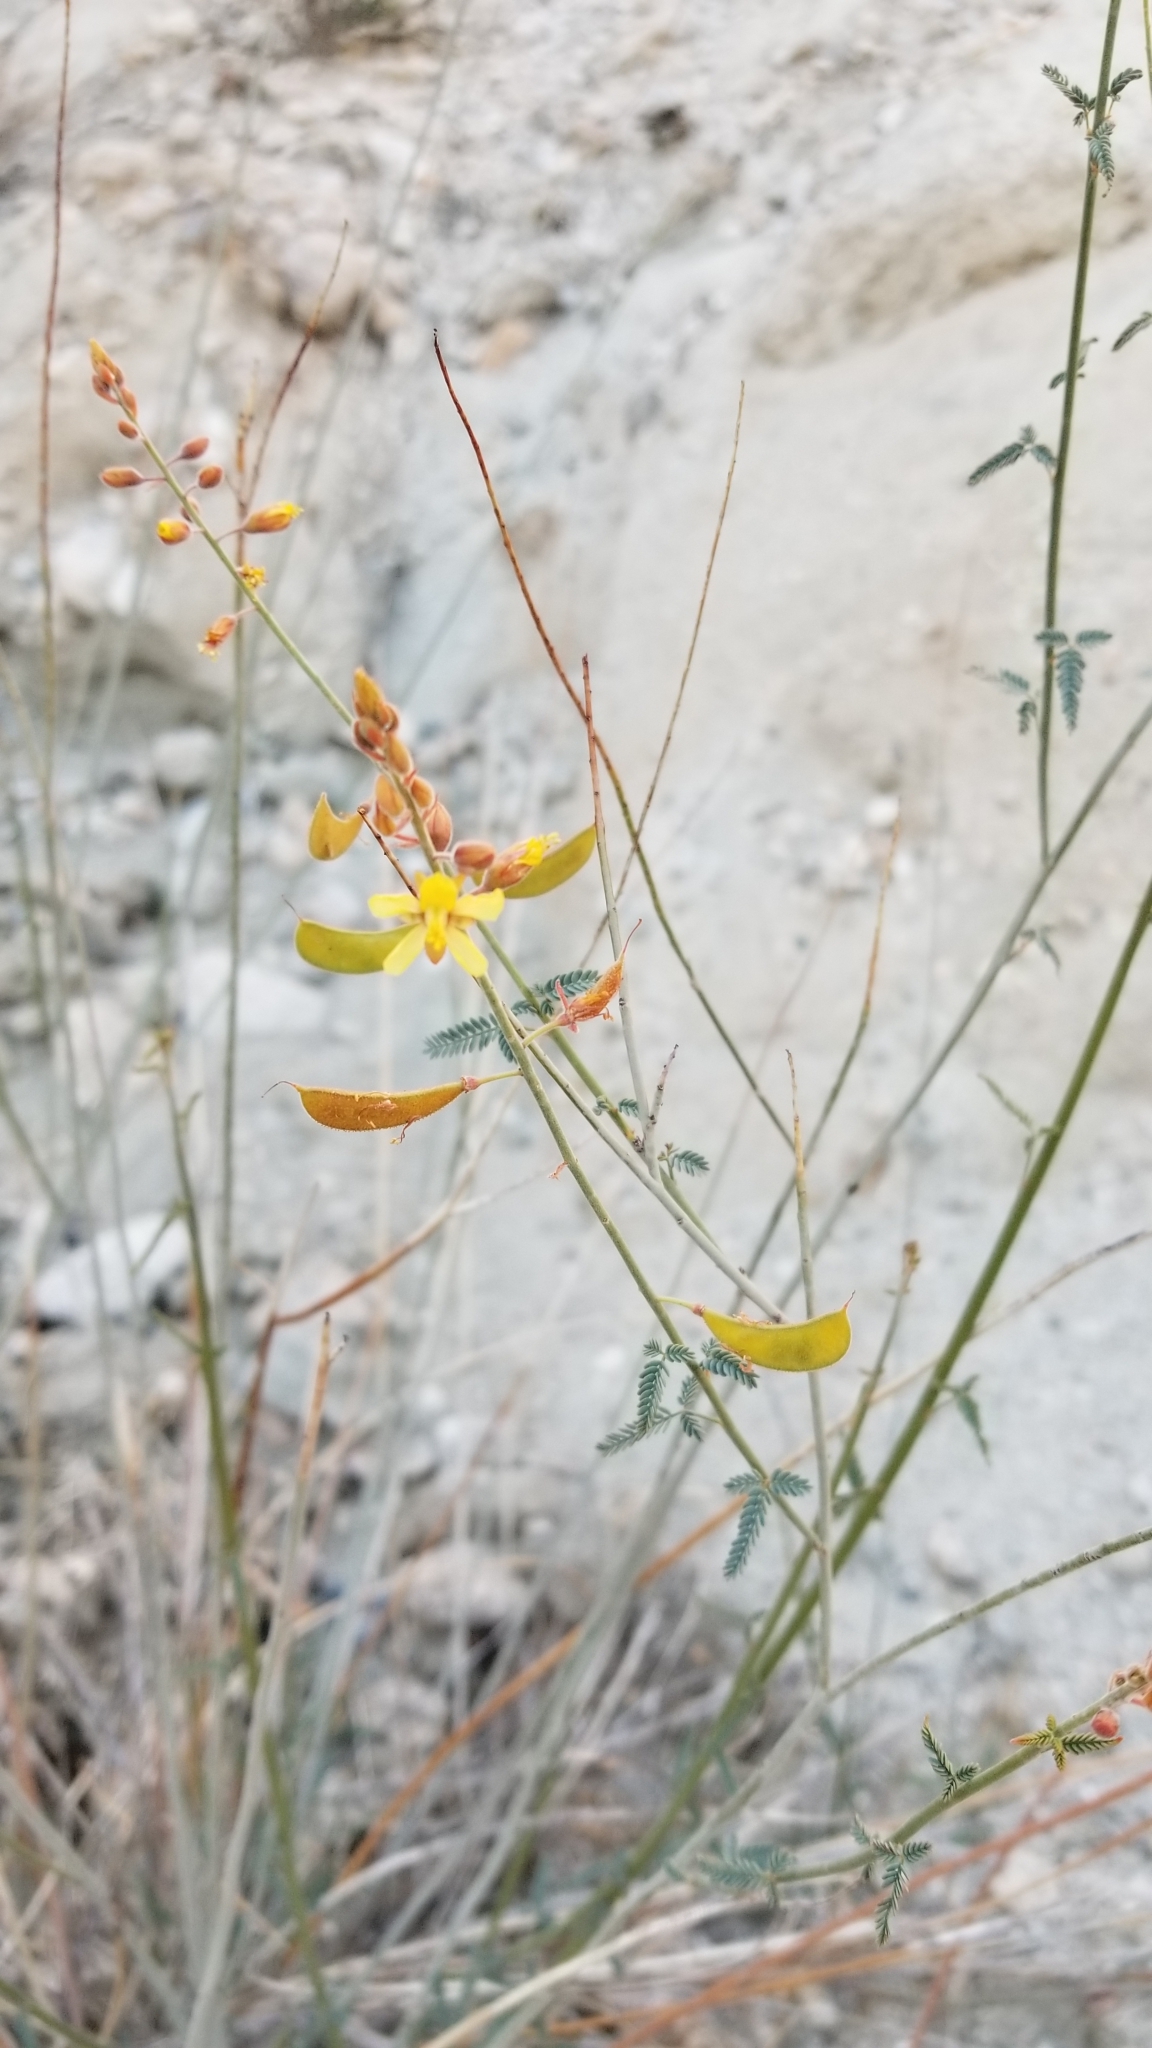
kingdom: Plantae
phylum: Tracheophyta
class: Magnoliopsida
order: Fabales
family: Fabaceae
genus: Hoffmannseggia
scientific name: Hoffmannseggia microphylla
